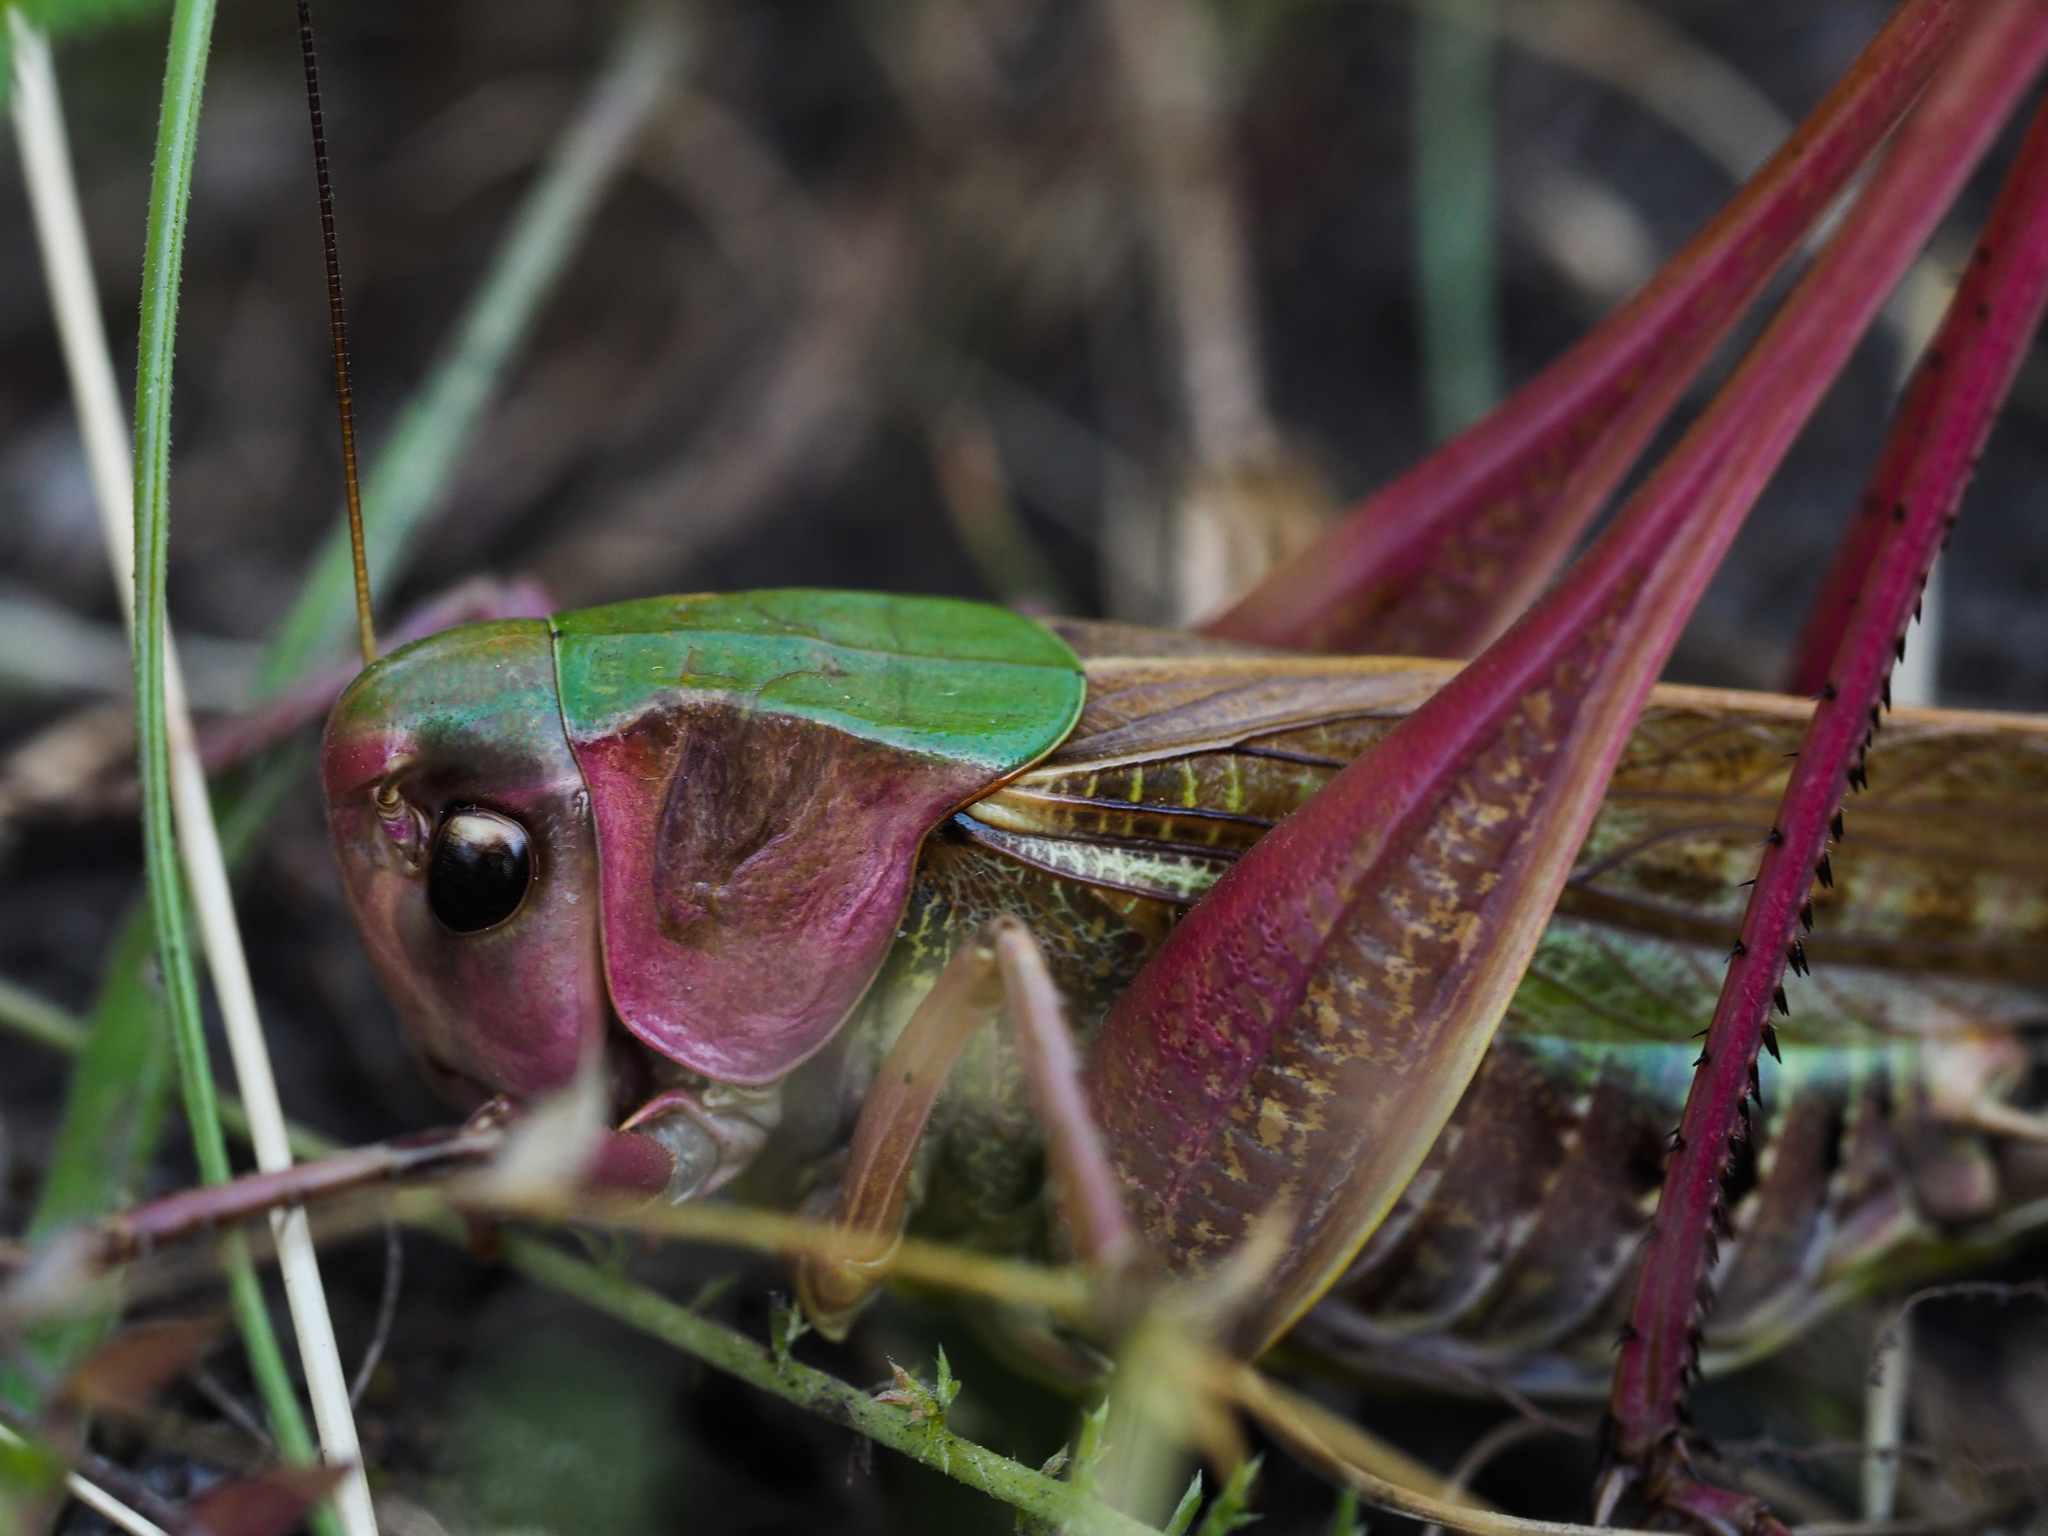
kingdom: Animalia
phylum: Arthropoda
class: Insecta
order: Orthoptera
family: Tettigoniidae
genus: Decticus
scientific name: Decticus verrucivorus
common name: Wart-biter
